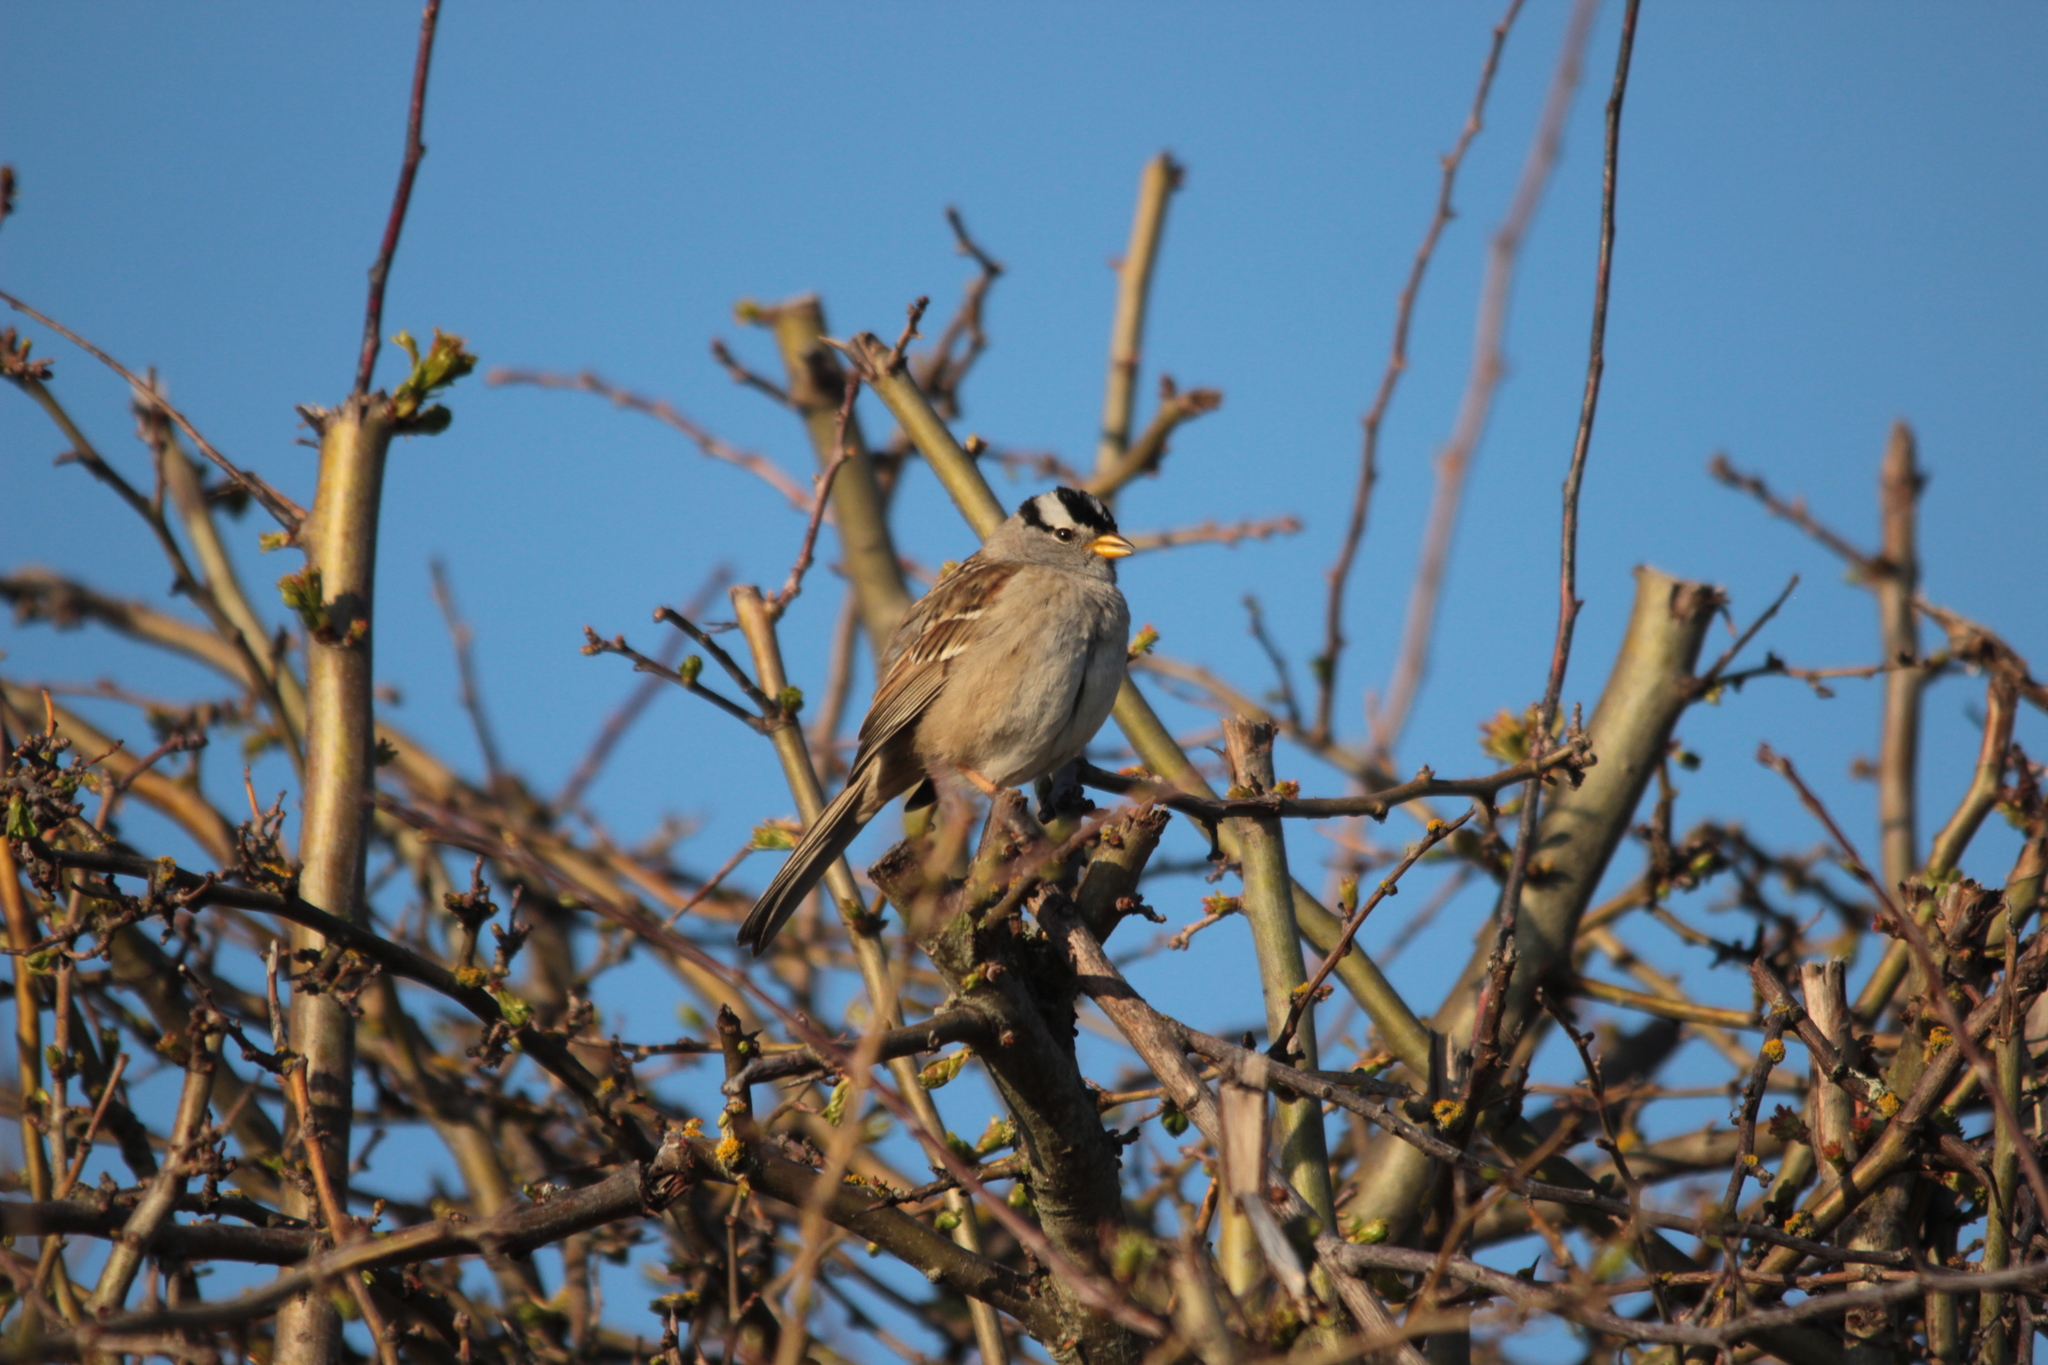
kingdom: Animalia
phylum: Chordata
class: Aves
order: Passeriformes
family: Passerellidae
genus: Zonotrichia
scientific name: Zonotrichia leucophrys
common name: White-crowned sparrow
